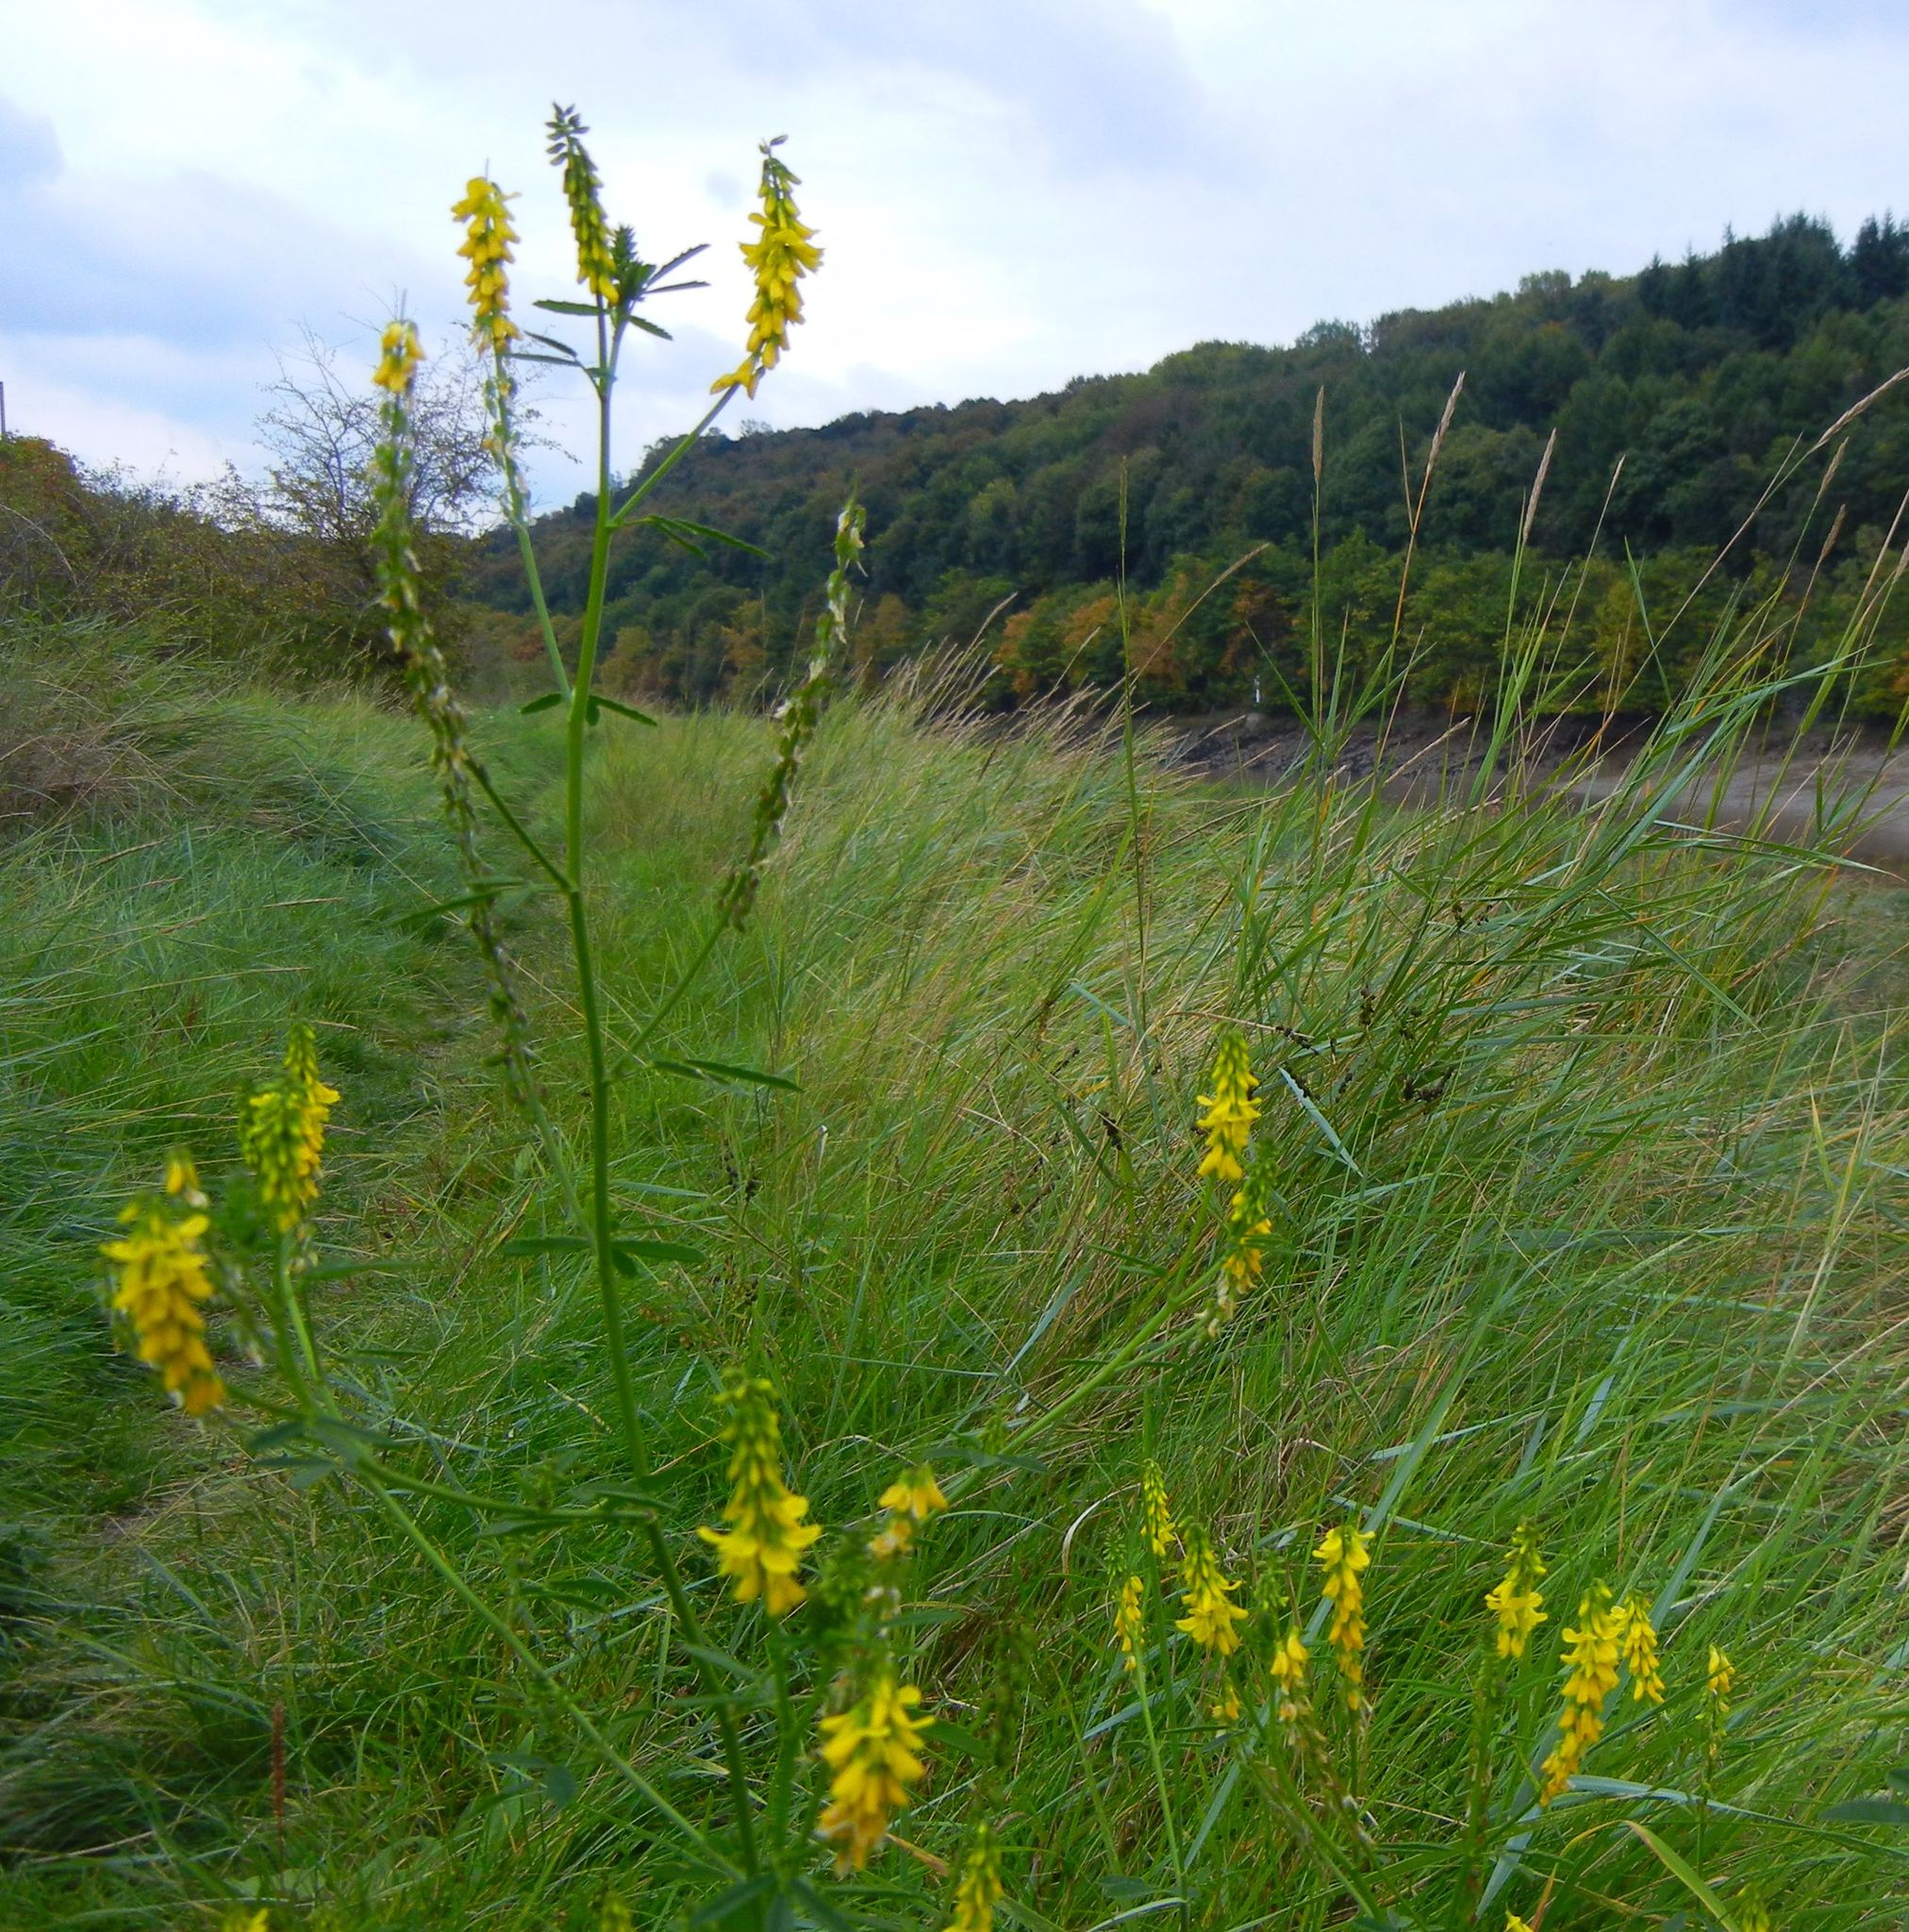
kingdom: Plantae
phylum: Tracheophyta
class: Magnoliopsida
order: Fabales
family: Fabaceae
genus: Melilotus
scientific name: Melilotus altissimus
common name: Tall melilot
